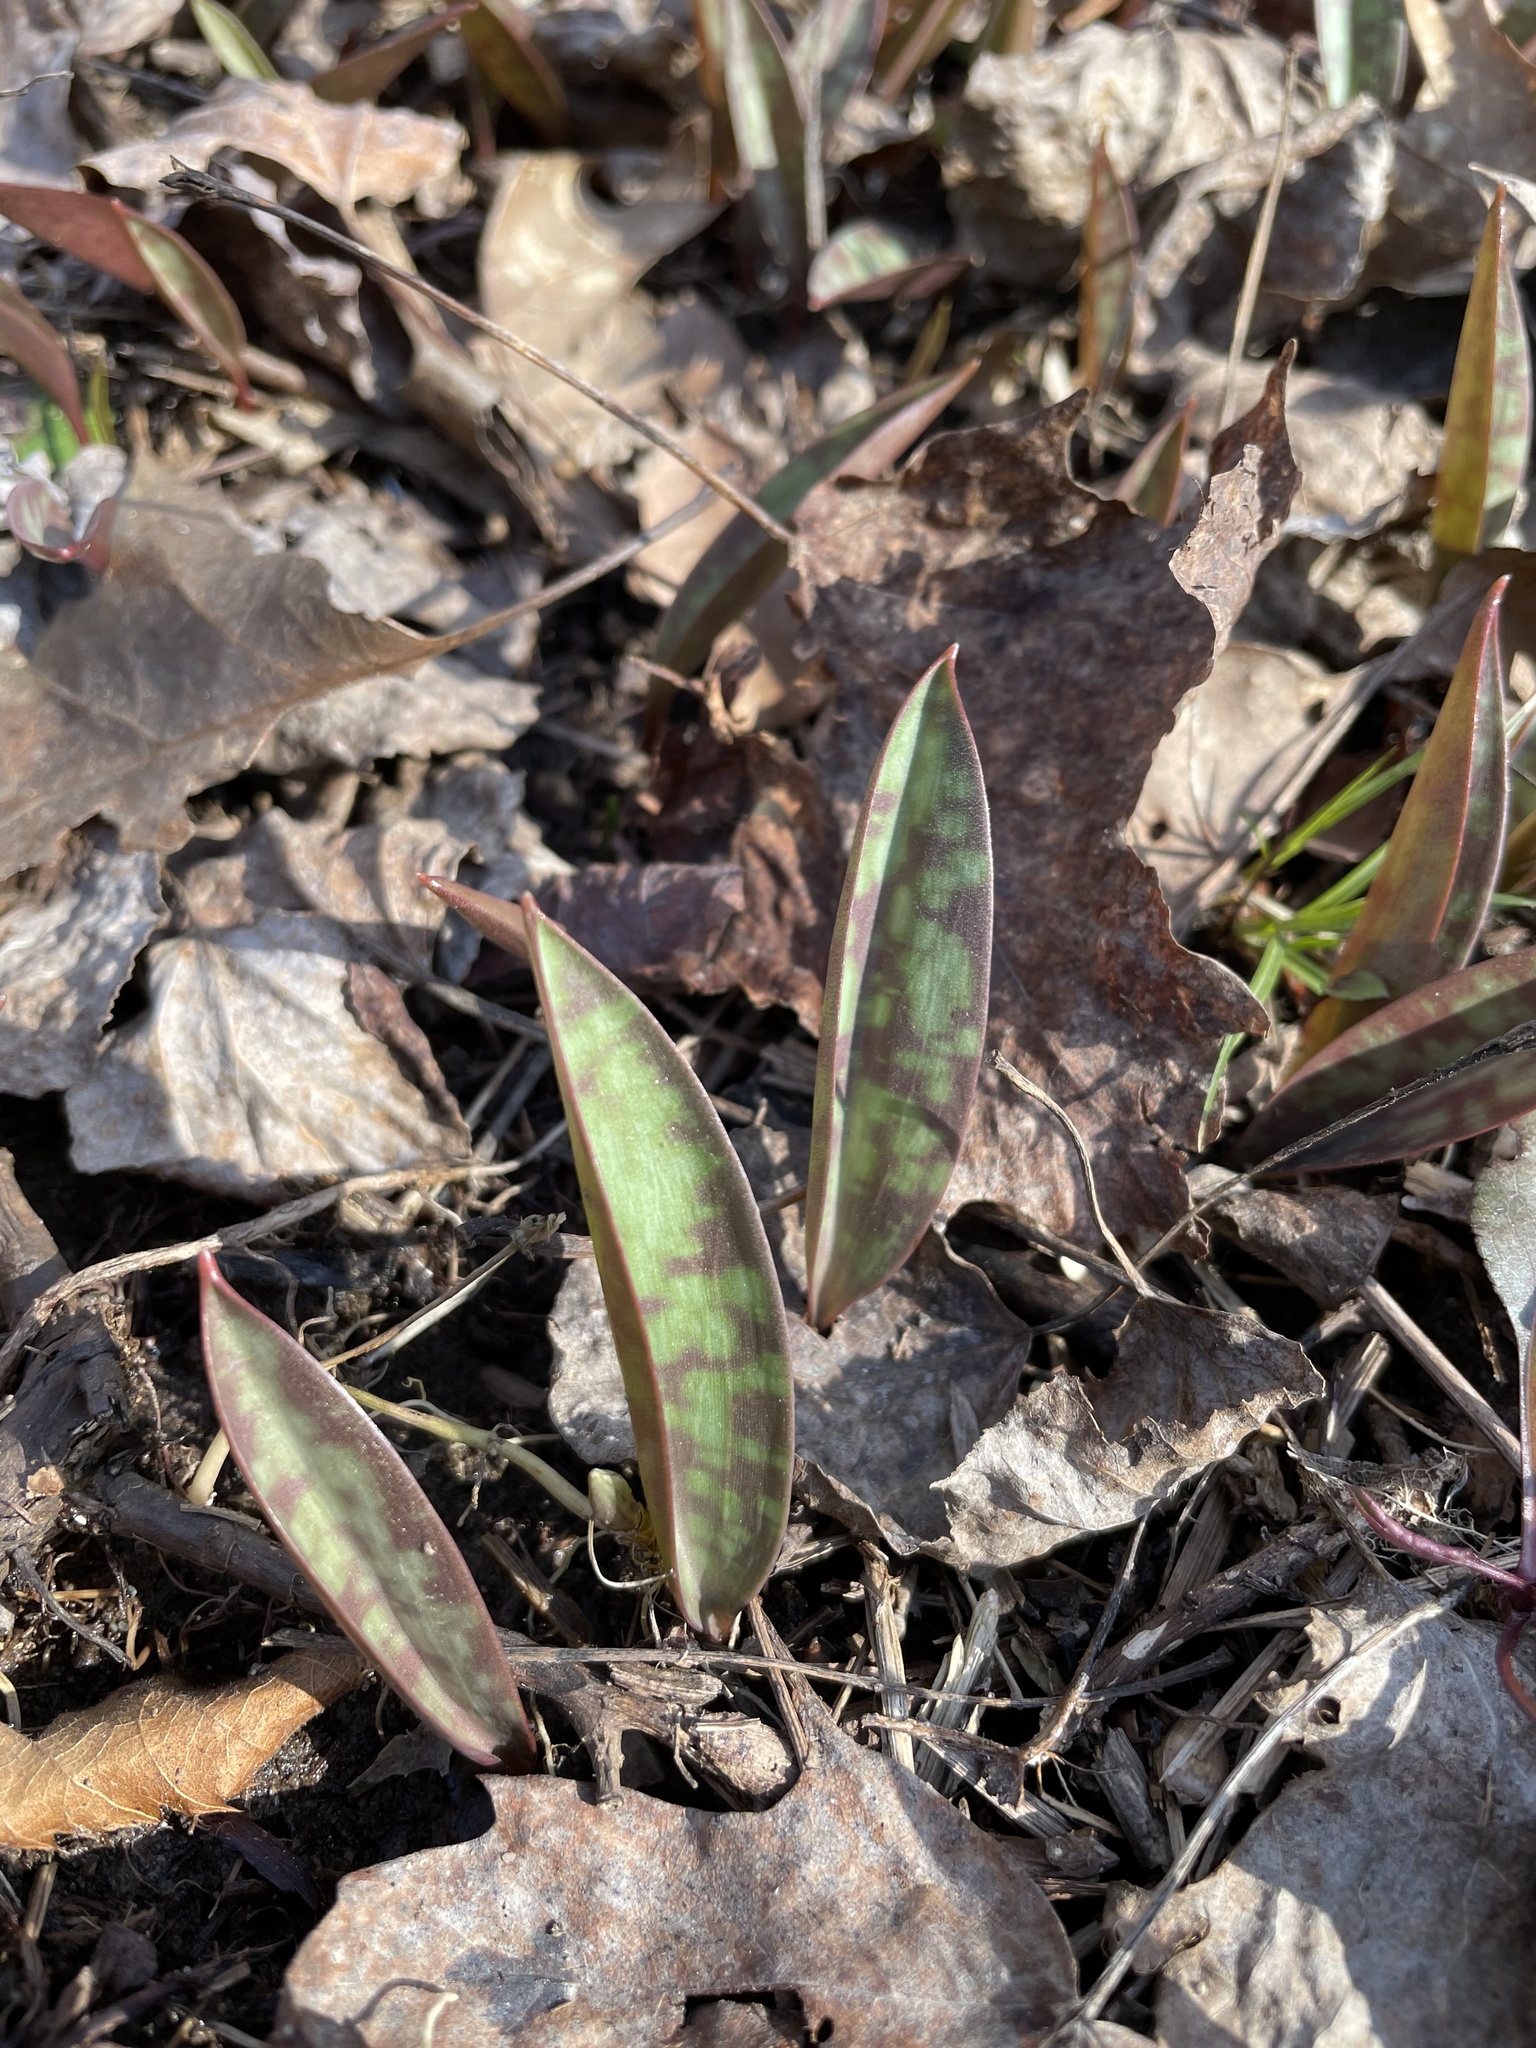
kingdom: Plantae
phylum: Tracheophyta
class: Liliopsida
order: Liliales
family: Liliaceae
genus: Erythronium
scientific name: Erythronium americanum
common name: Yellow adder's-tongue
